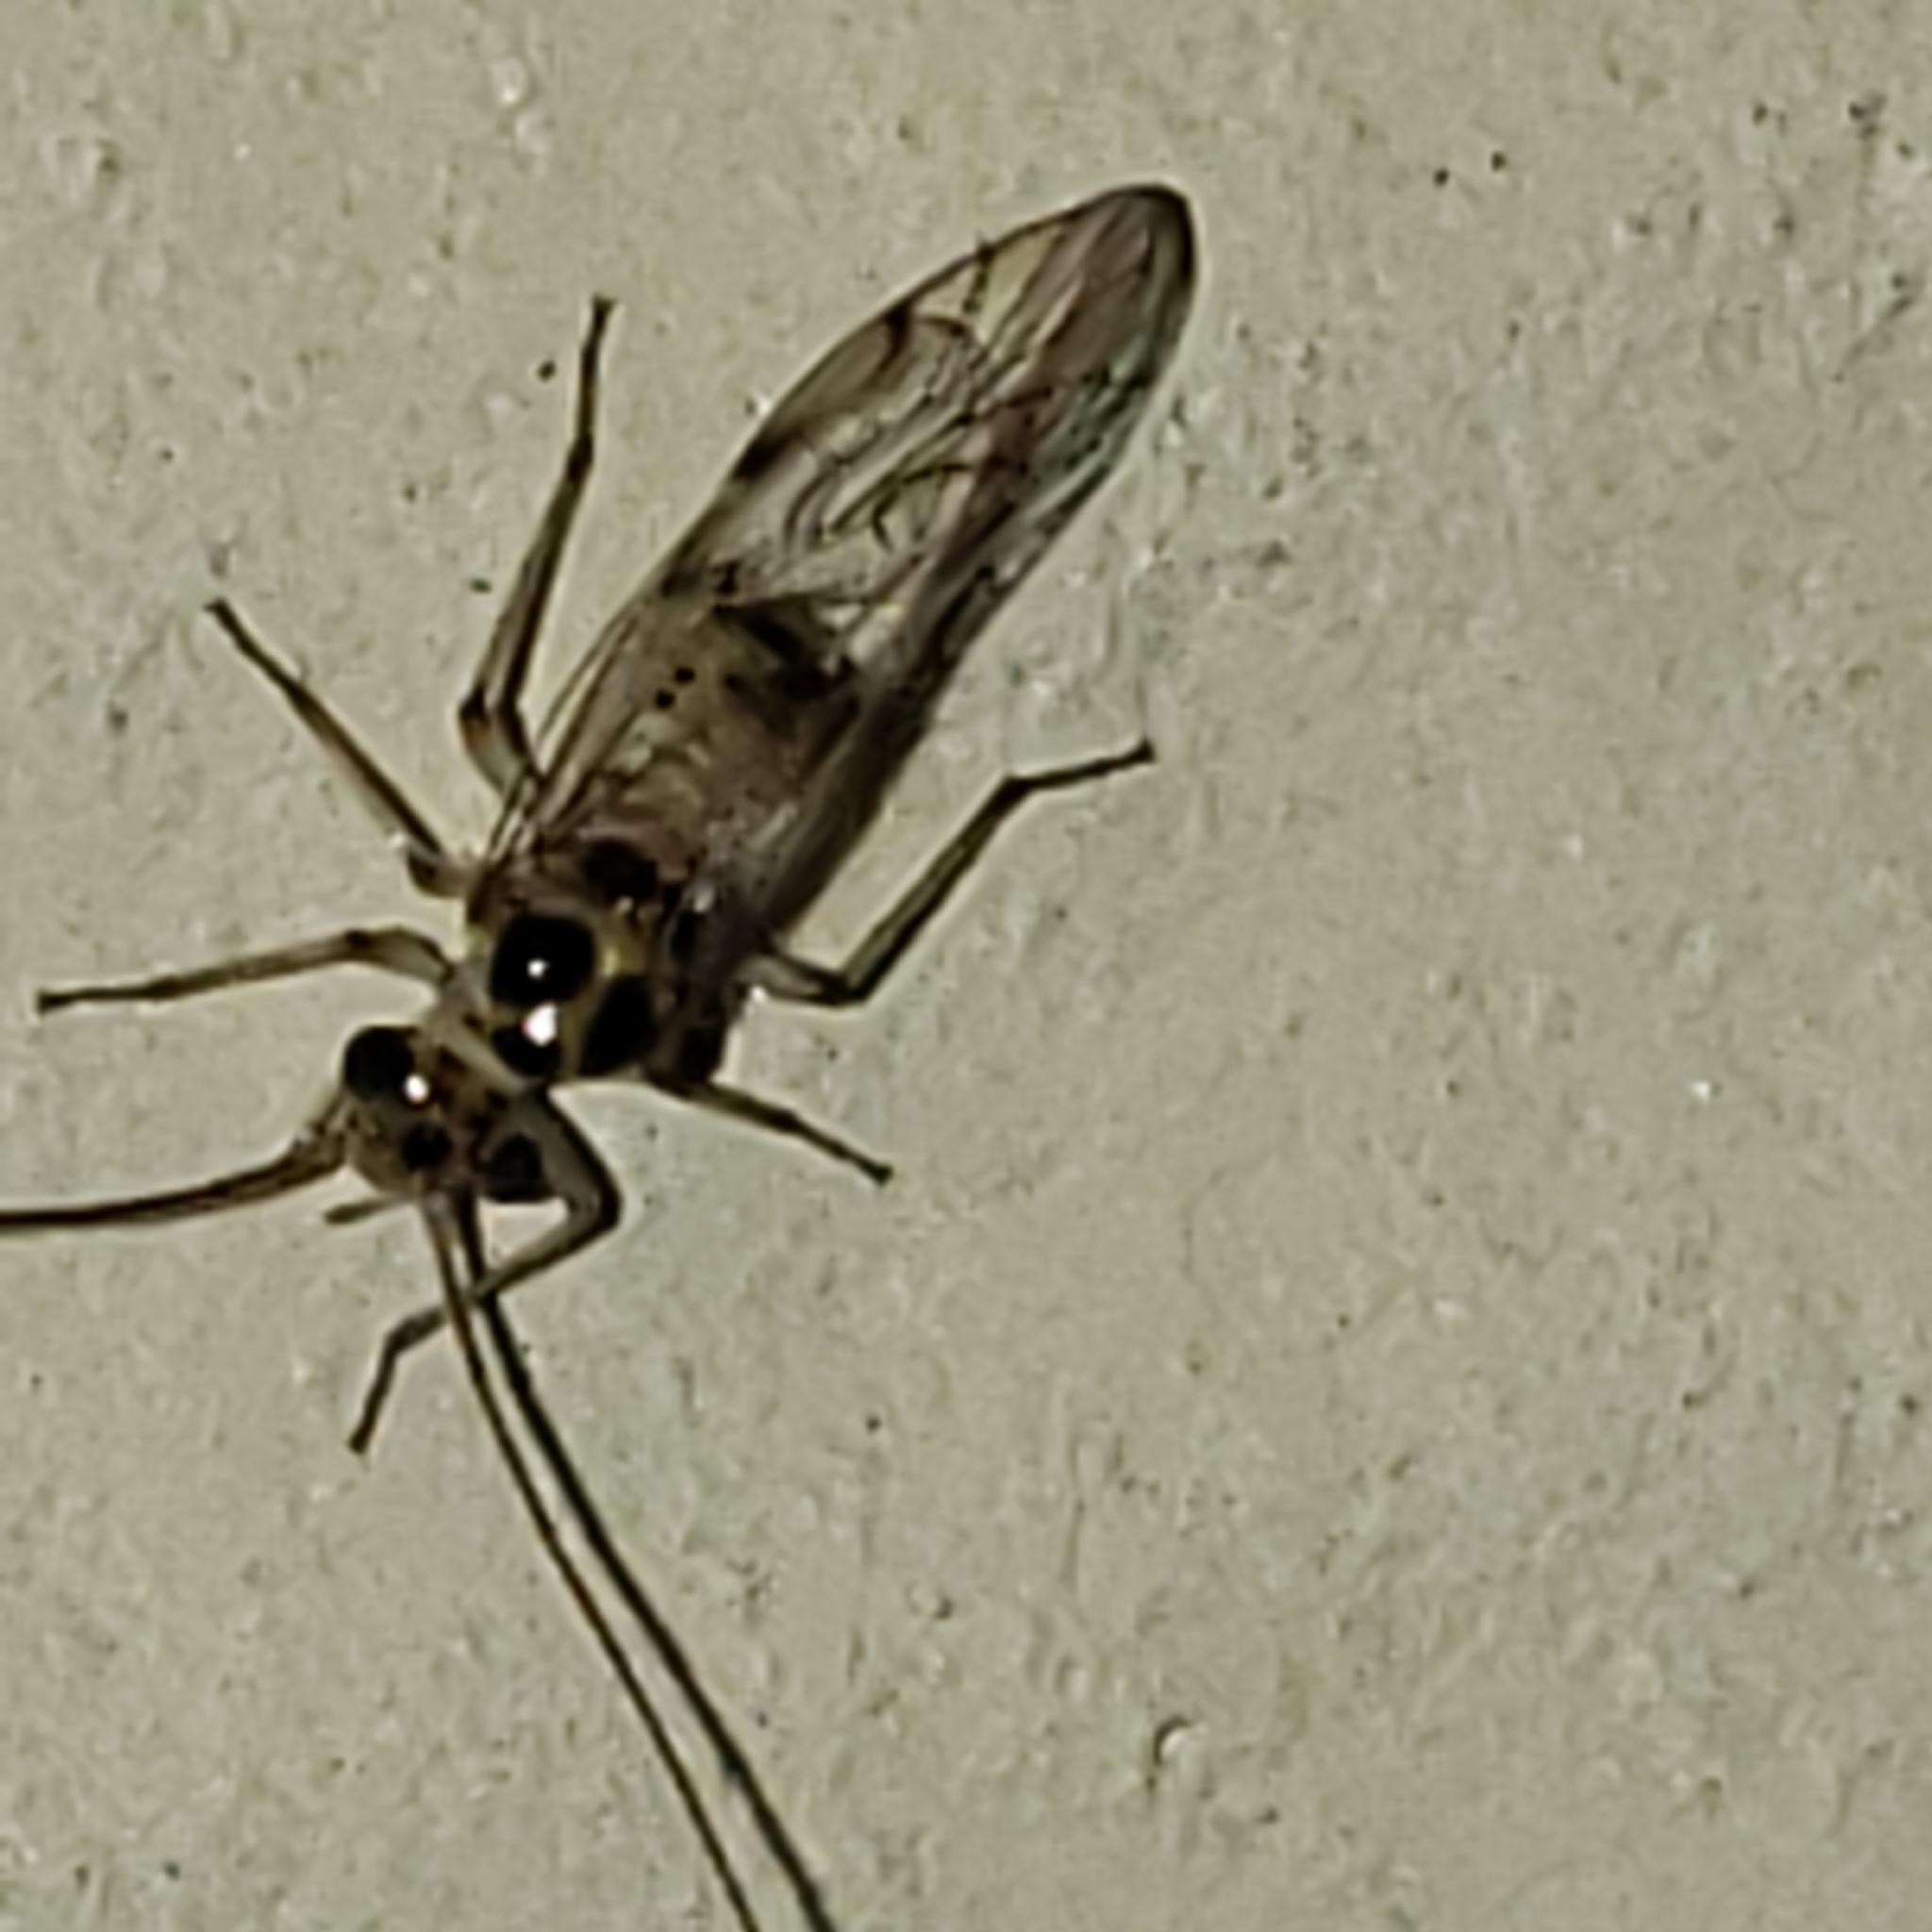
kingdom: Animalia
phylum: Arthropoda
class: Insecta
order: Psocodea
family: Dasydemellidae
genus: Teliapsocus
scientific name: Teliapsocus conterminus
